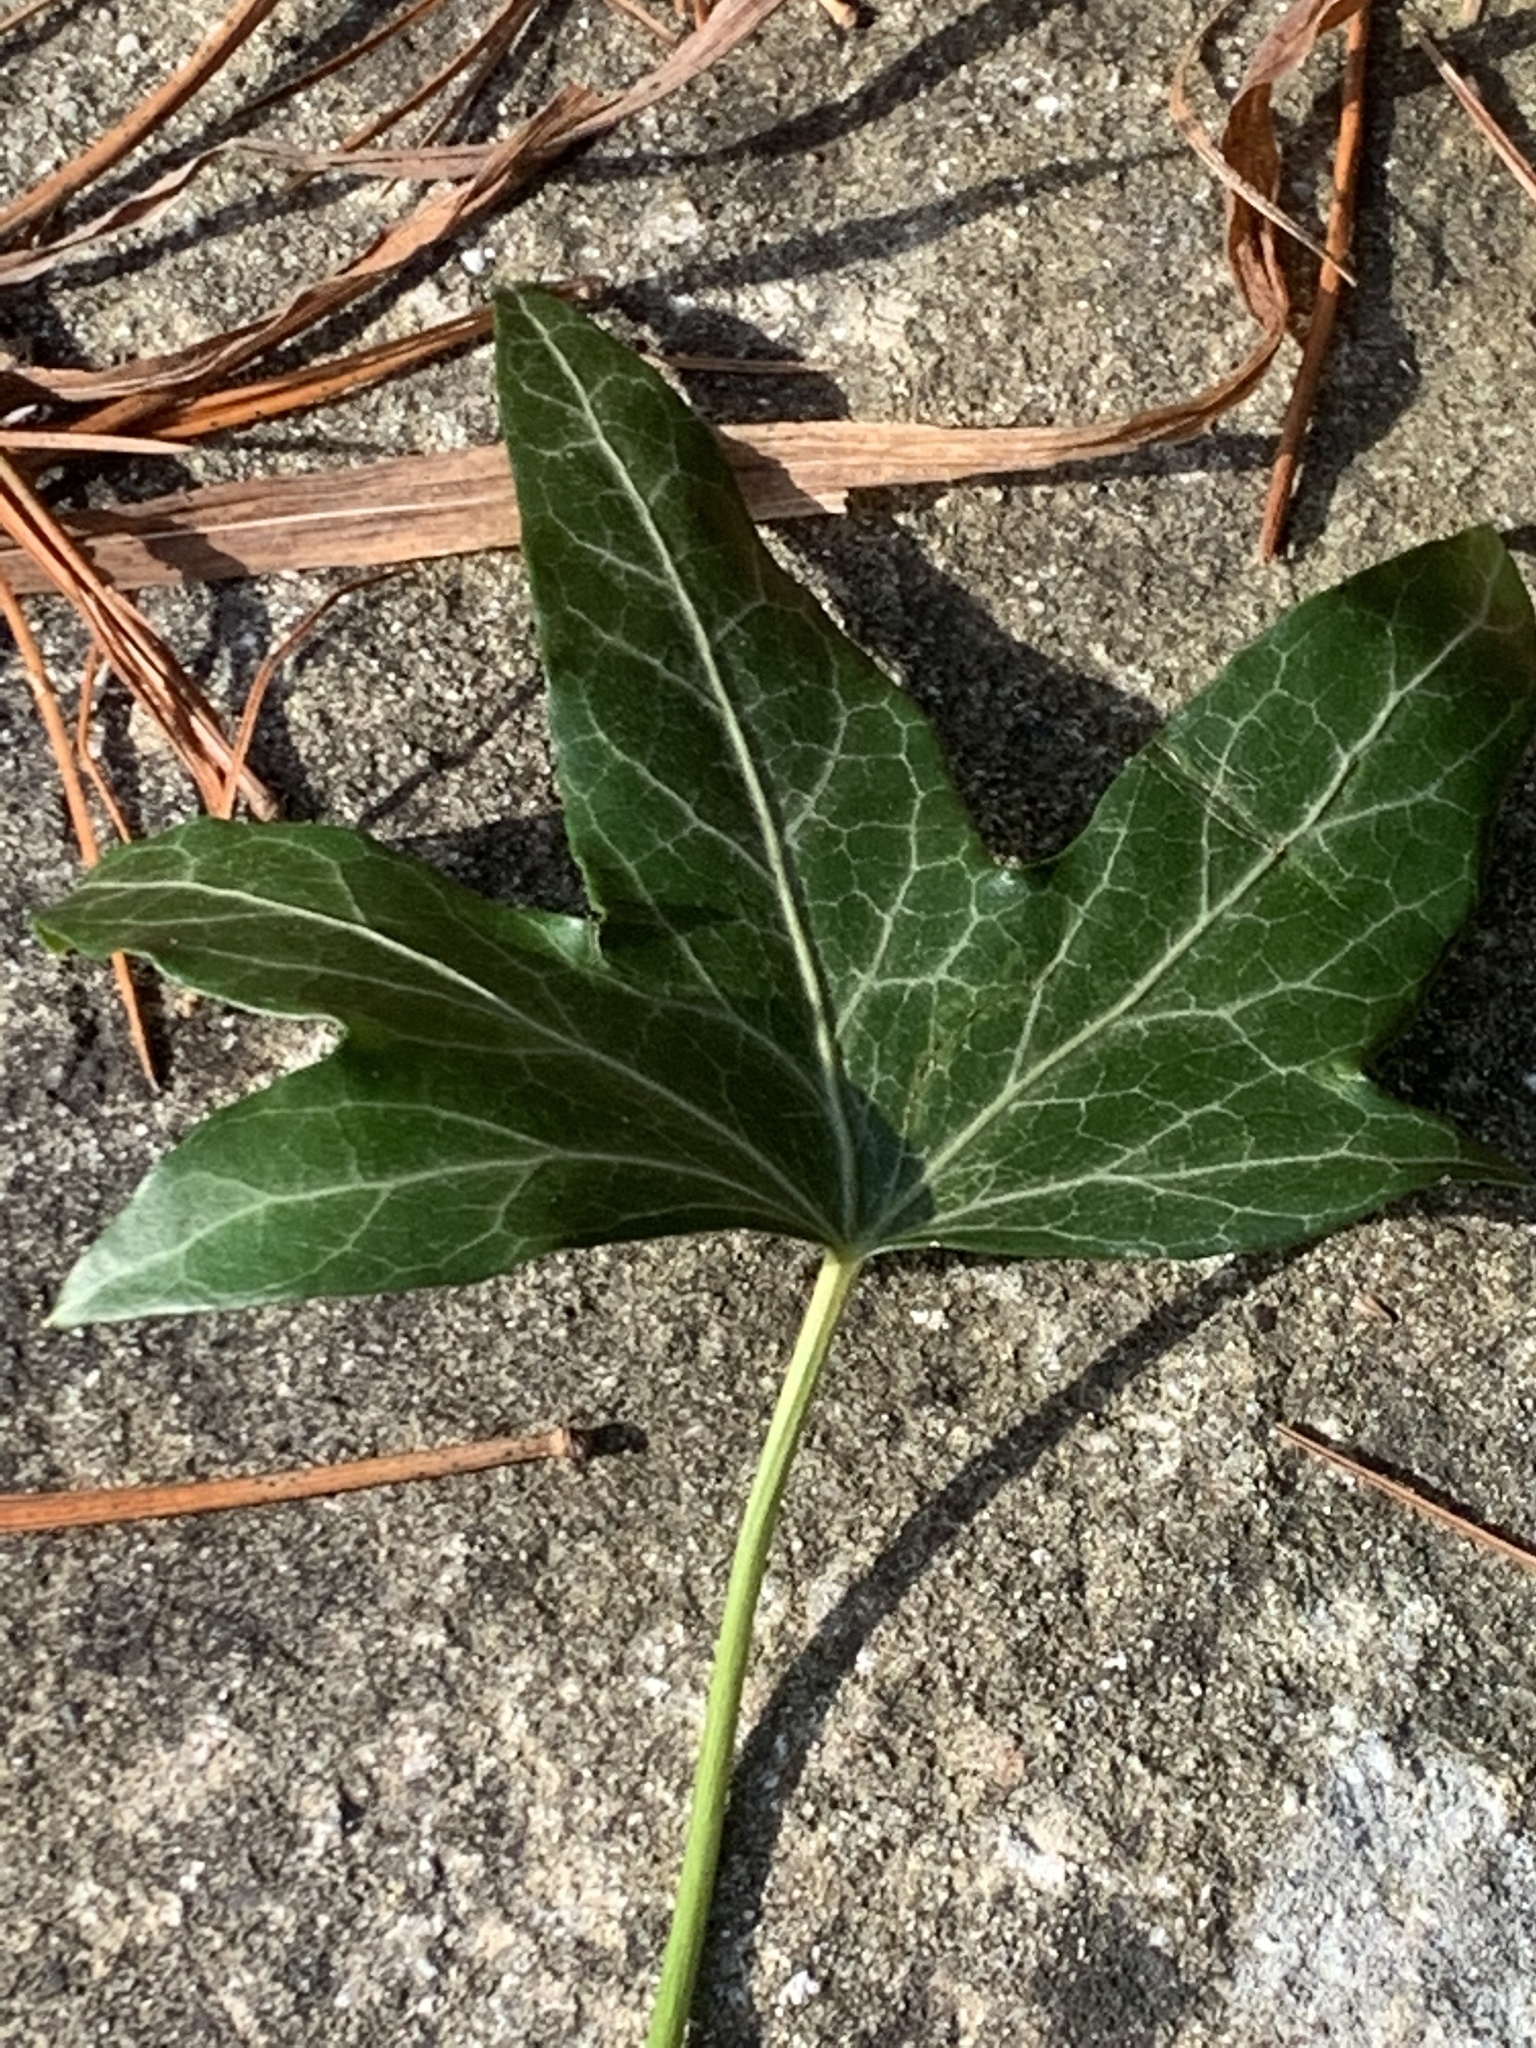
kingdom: Plantae
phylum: Tracheophyta
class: Magnoliopsida
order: Apiales
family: Araliaceae
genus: Hedera
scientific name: Hedera helix
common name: Ivy
